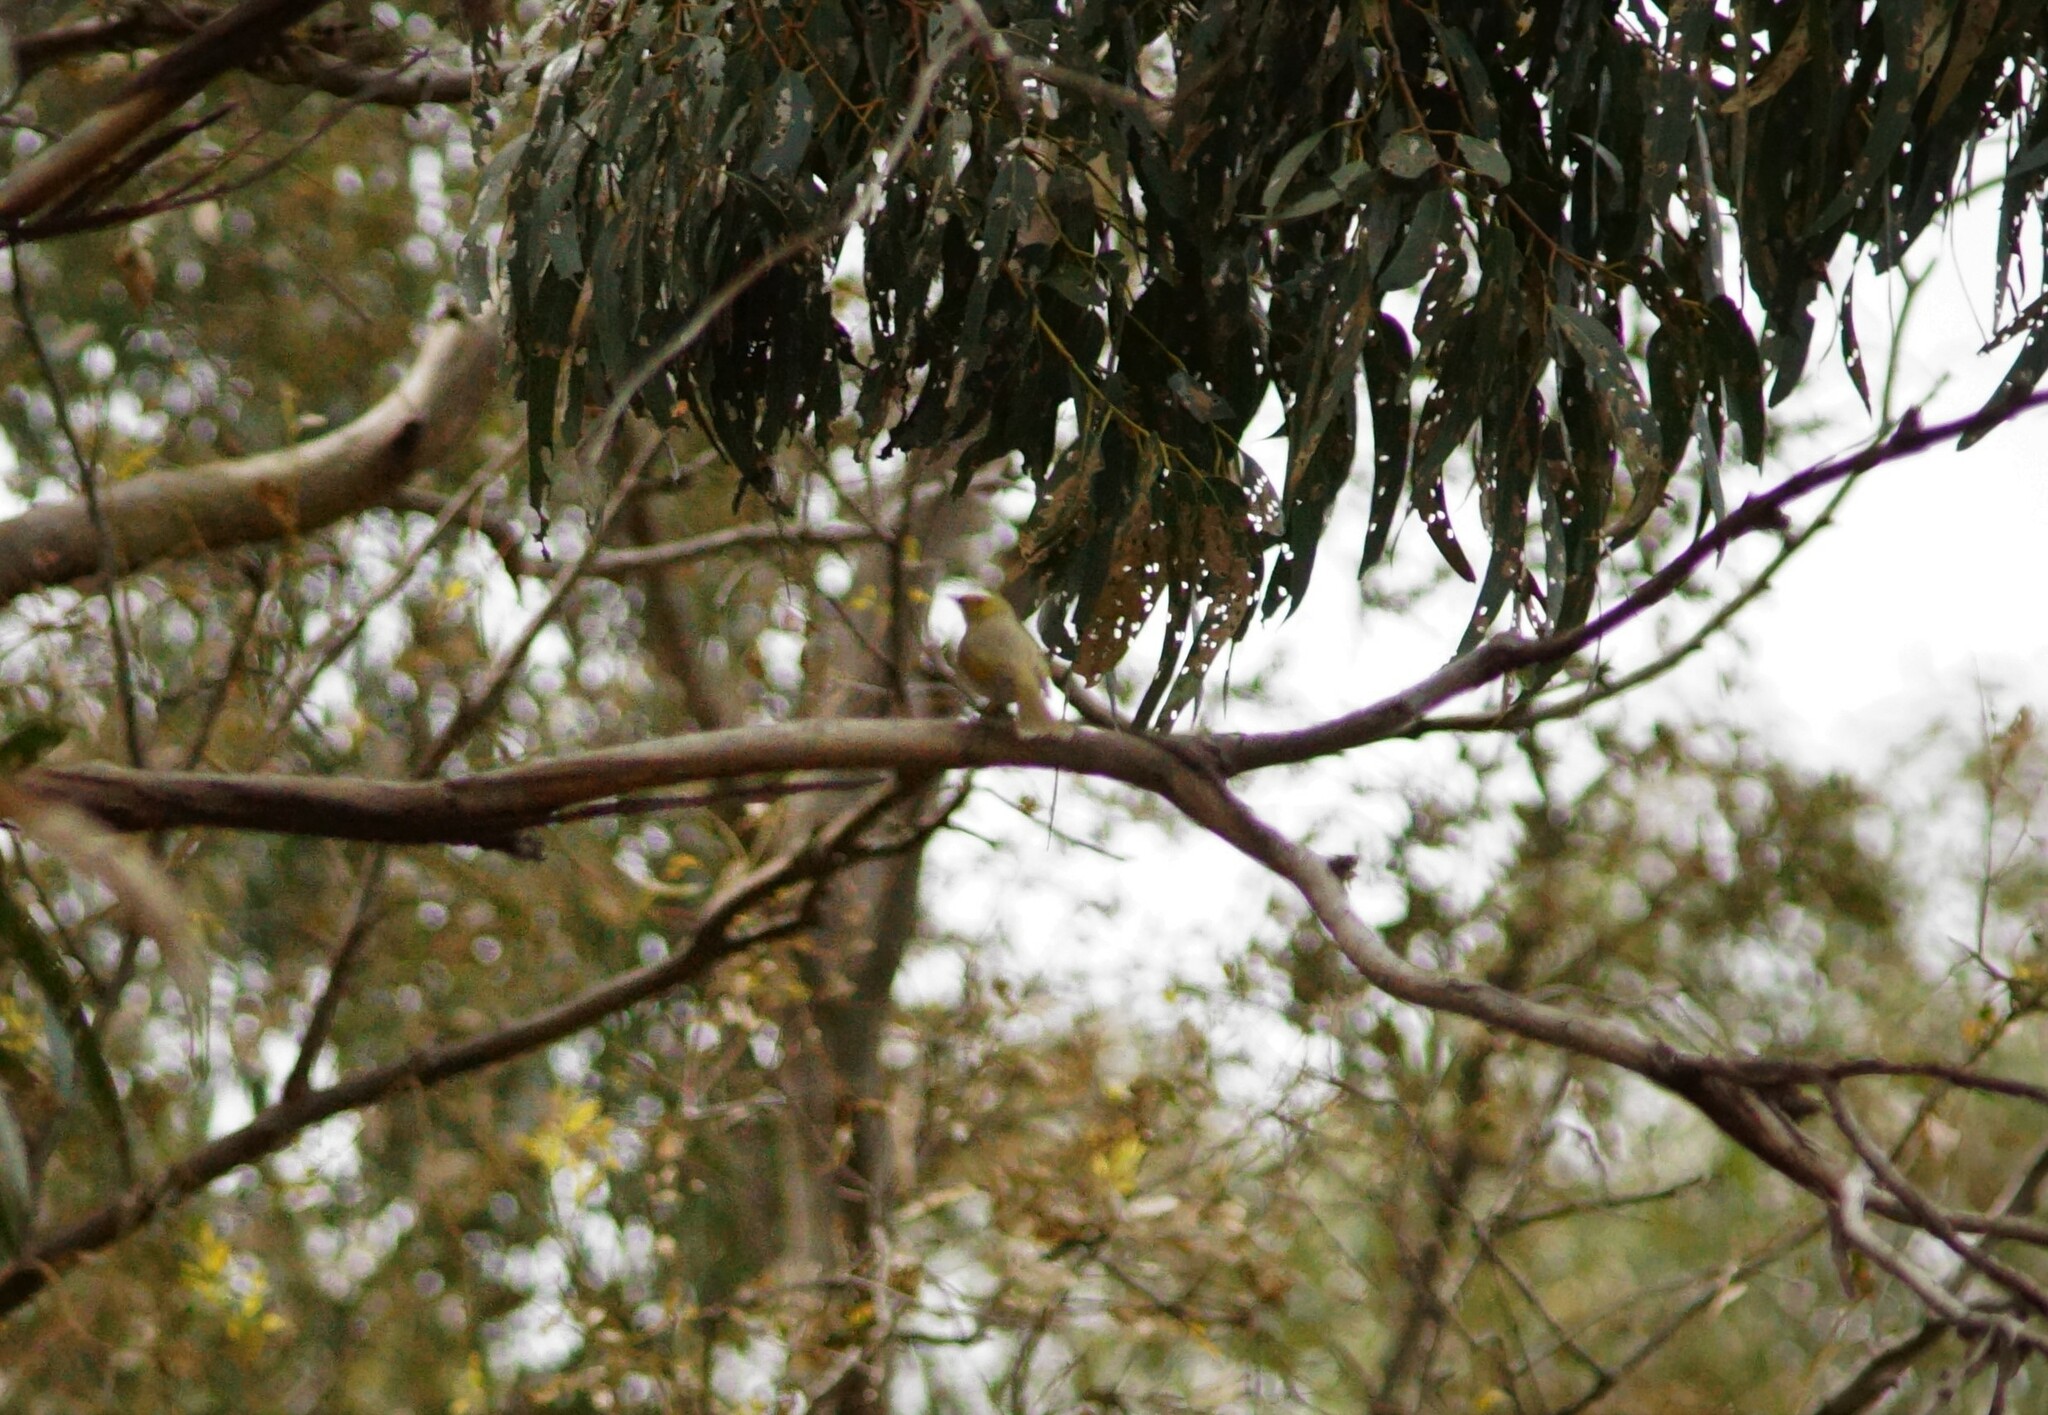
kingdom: Animalia
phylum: Chordata
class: Aves
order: Passeriformes
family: Meliphagidae
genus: Ptilotula
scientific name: Ptilotula penicillata
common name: White-plumed honeyeater
